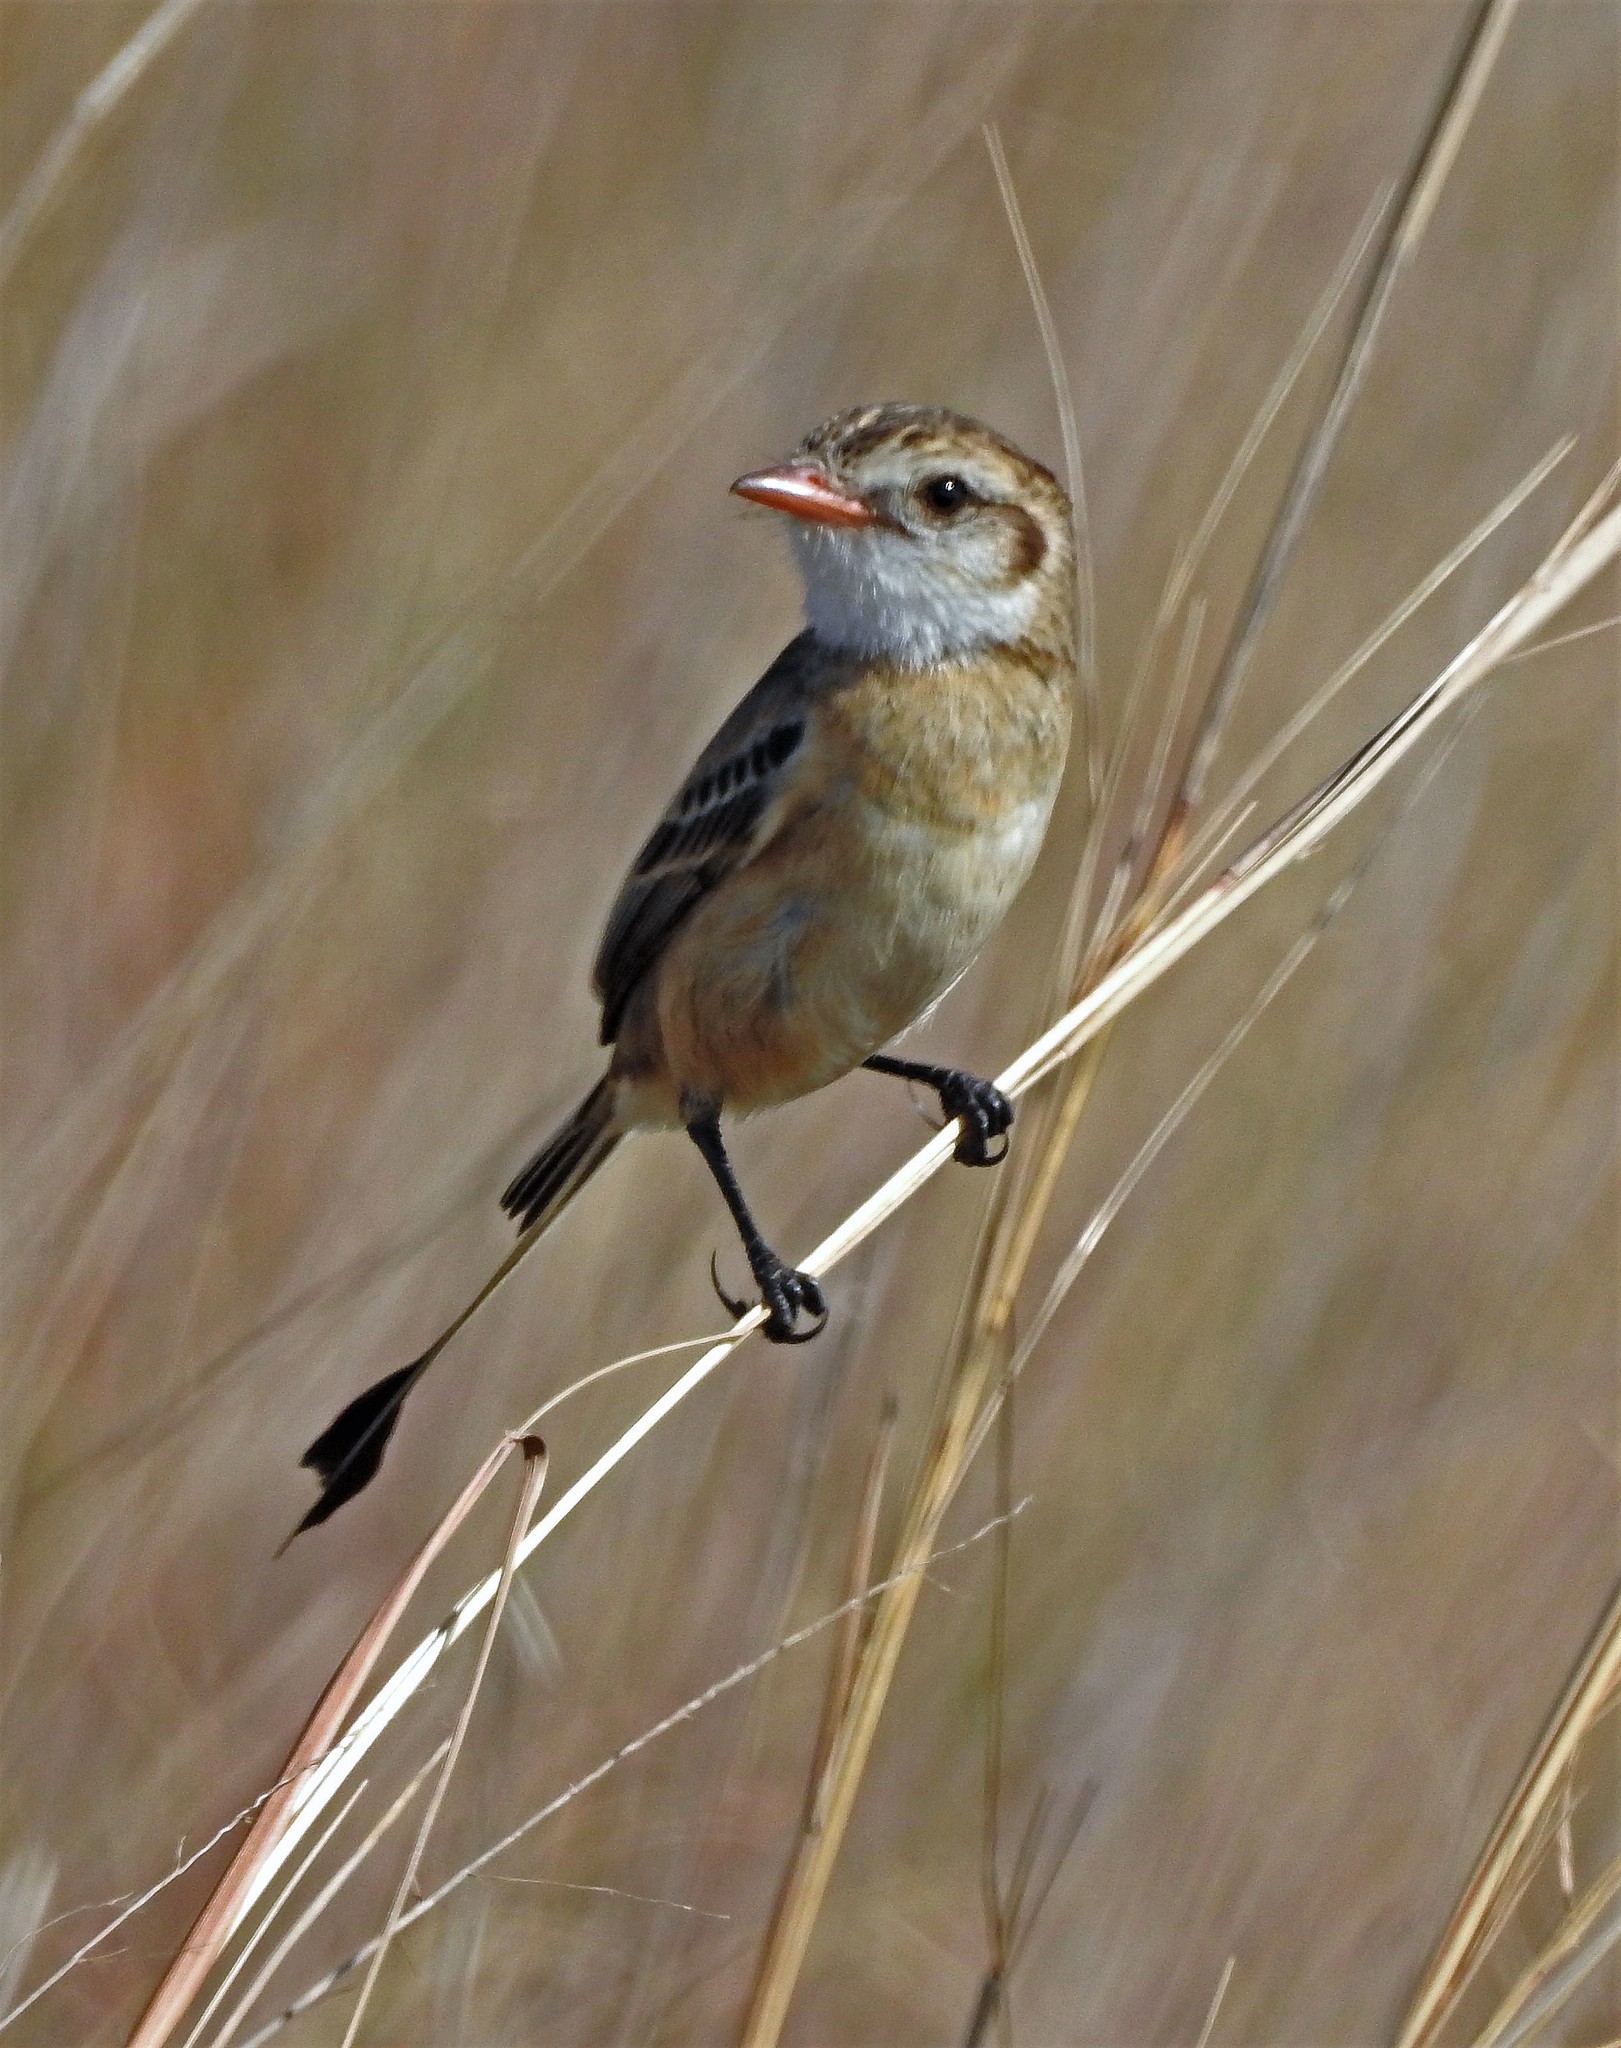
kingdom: Animalia
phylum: Chordata
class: Aves
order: Passeriformes
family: Tyrannidae
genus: Alectrurus
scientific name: Alectrurus risora
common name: Strange-tailed tyrant
